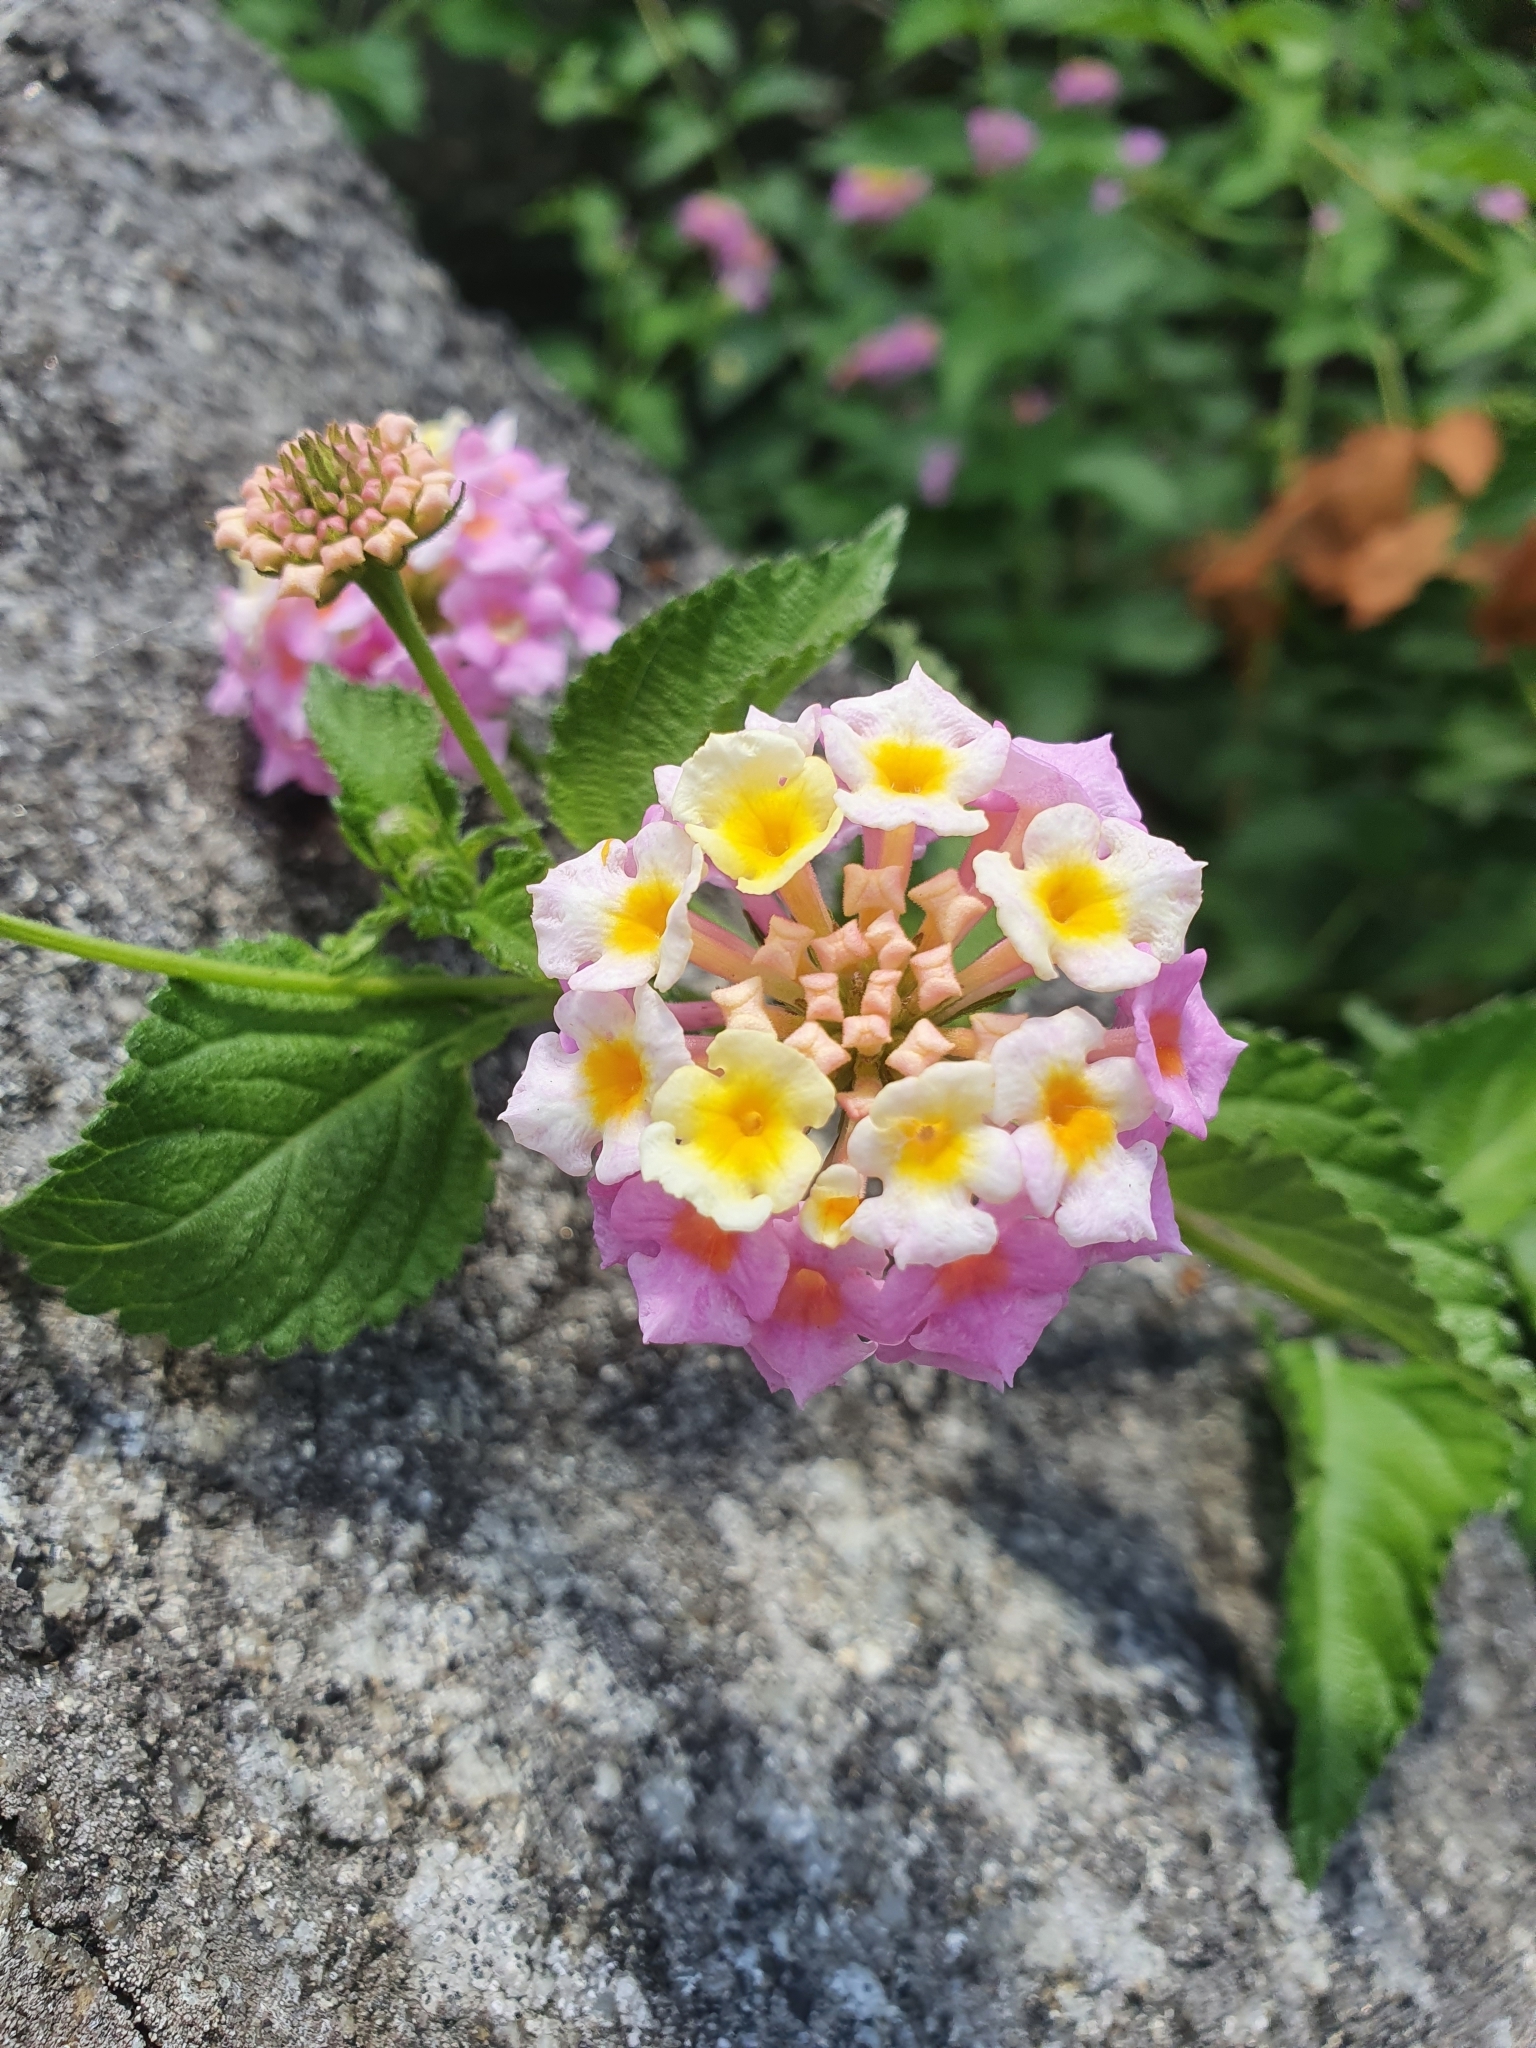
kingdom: Plantae
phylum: Tracheophyta
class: Magnoliopsida
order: Lamiales
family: Verbenaceae
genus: Lantana
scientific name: Lantana camara
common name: Lantana
